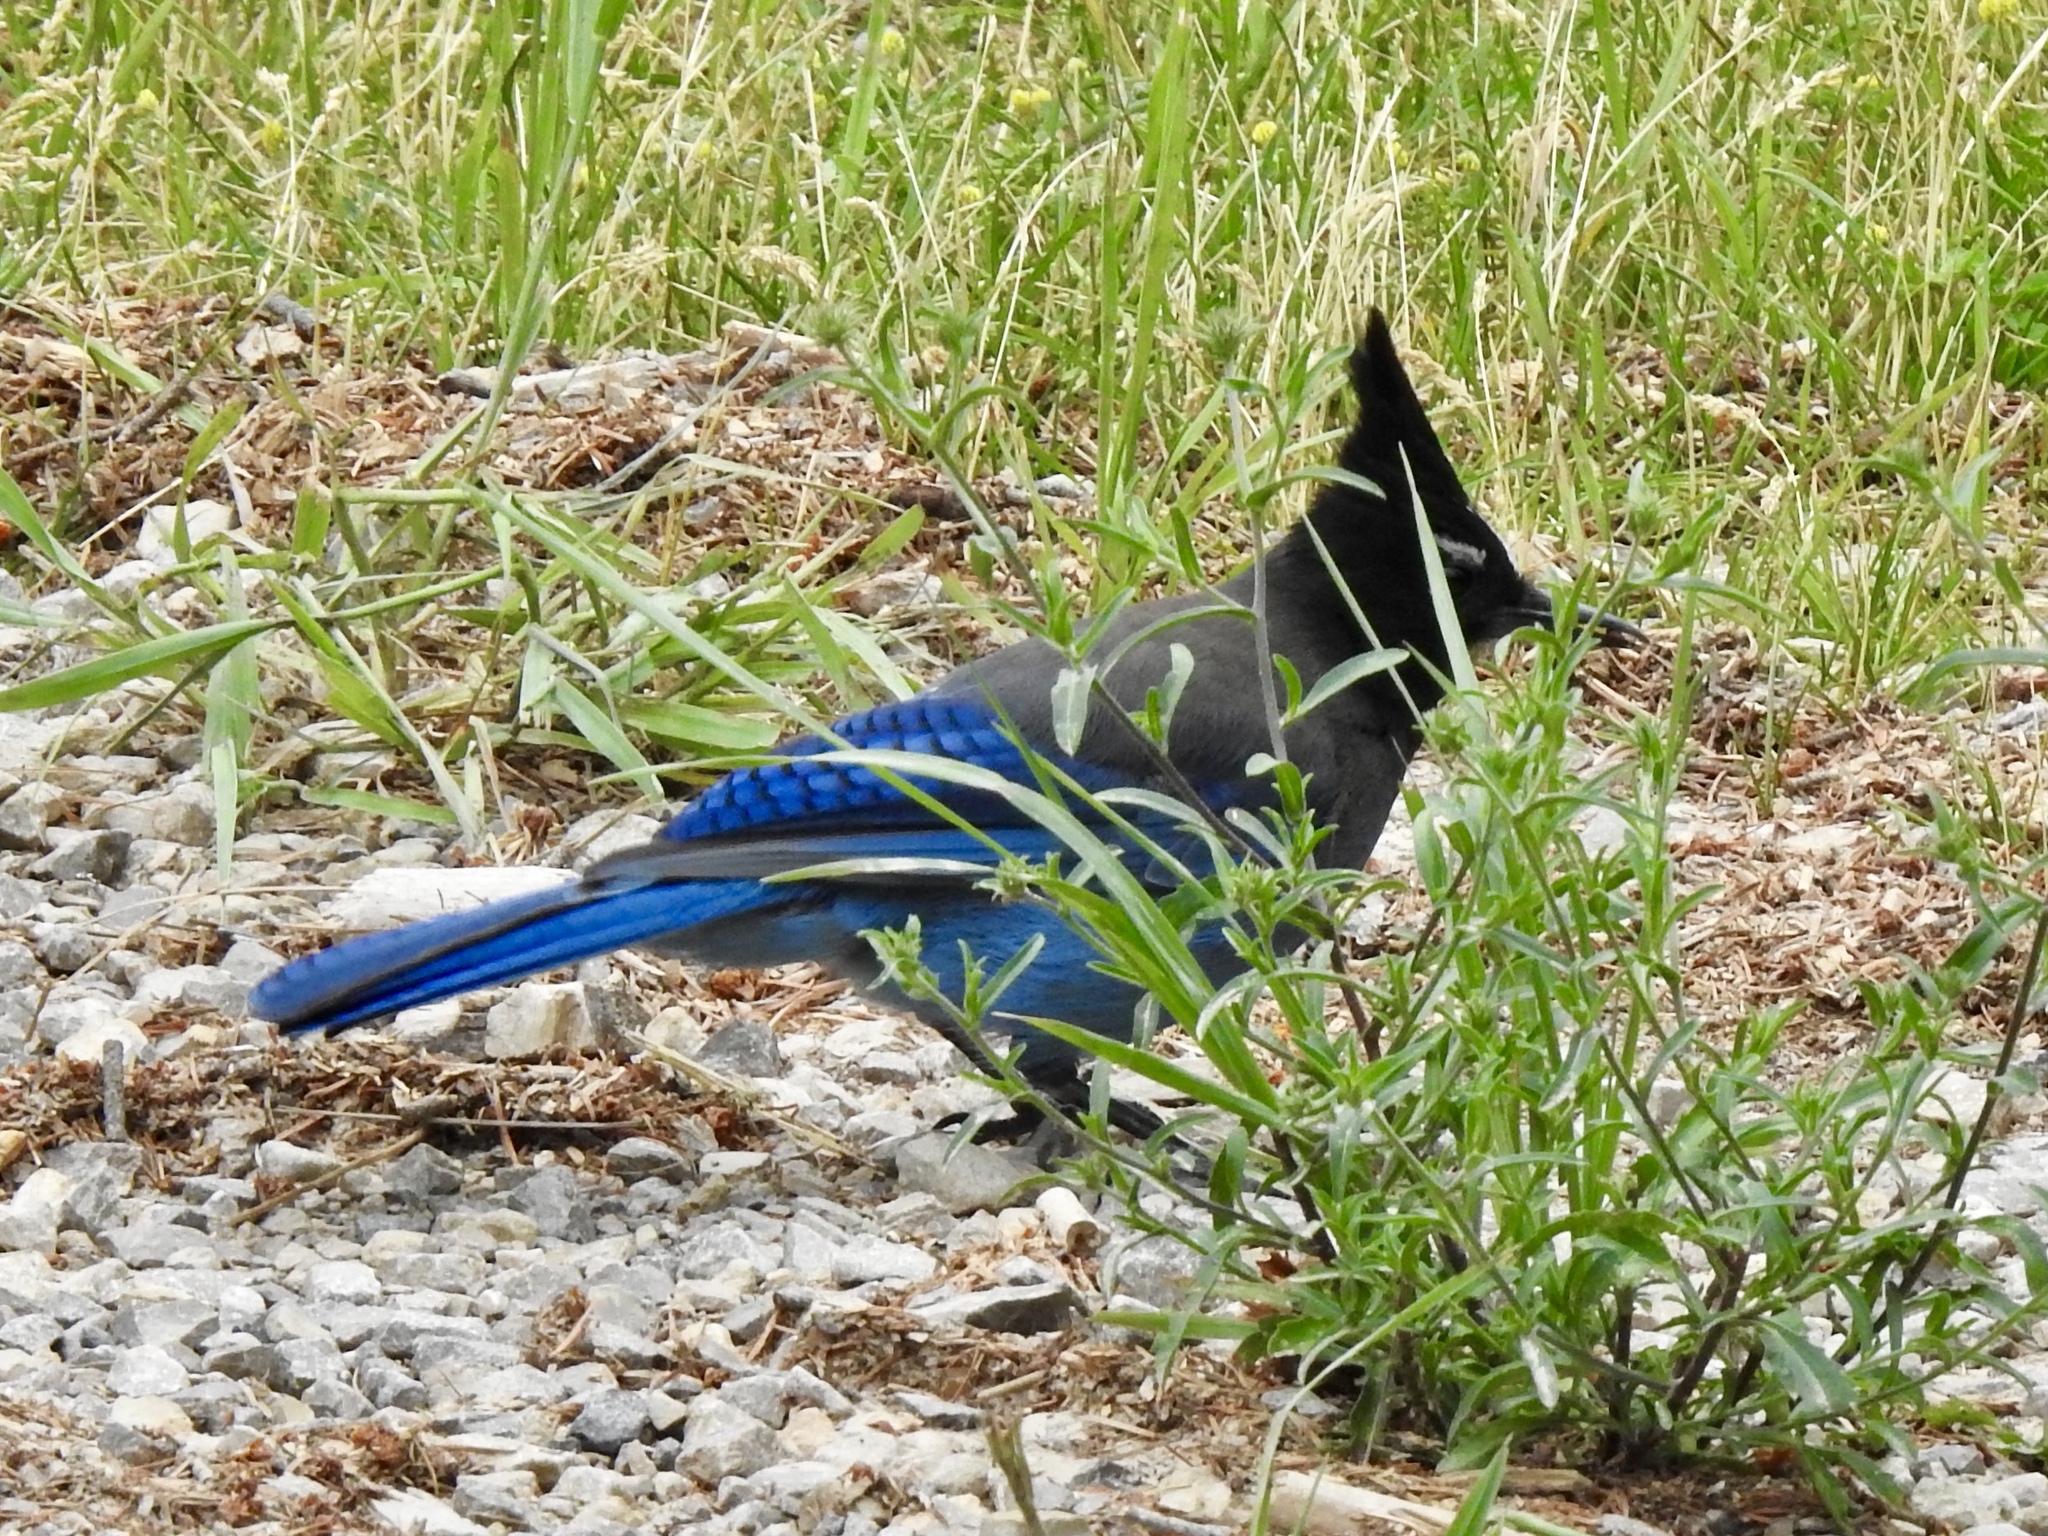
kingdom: Animalia
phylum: Chordata
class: Aves
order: Passeriformes
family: Corvidae
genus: Cyanocitta
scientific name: Cyanocitta stelleri
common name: Steller's jay
